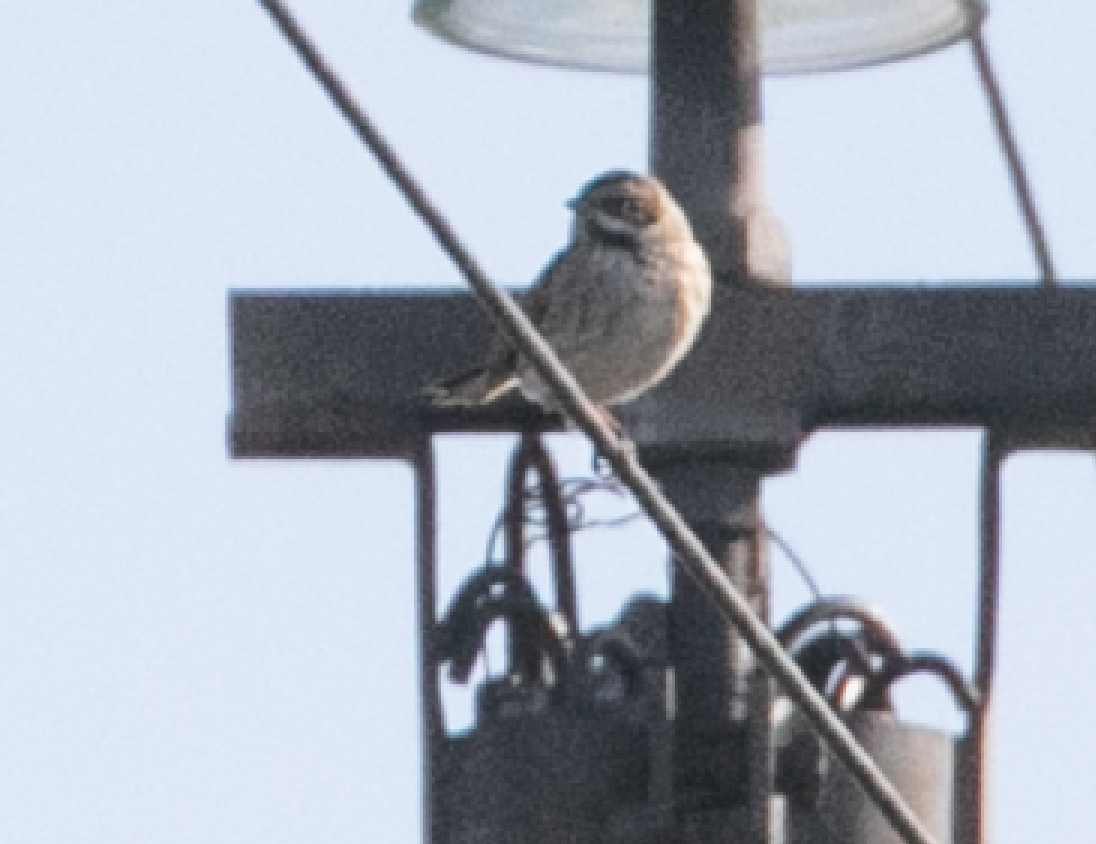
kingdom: Animalia
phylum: Chordata
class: Aves
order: Passeriformes
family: Emberizidae
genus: Emberiza
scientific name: Emberiza schoeniclus
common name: Reed bunting
